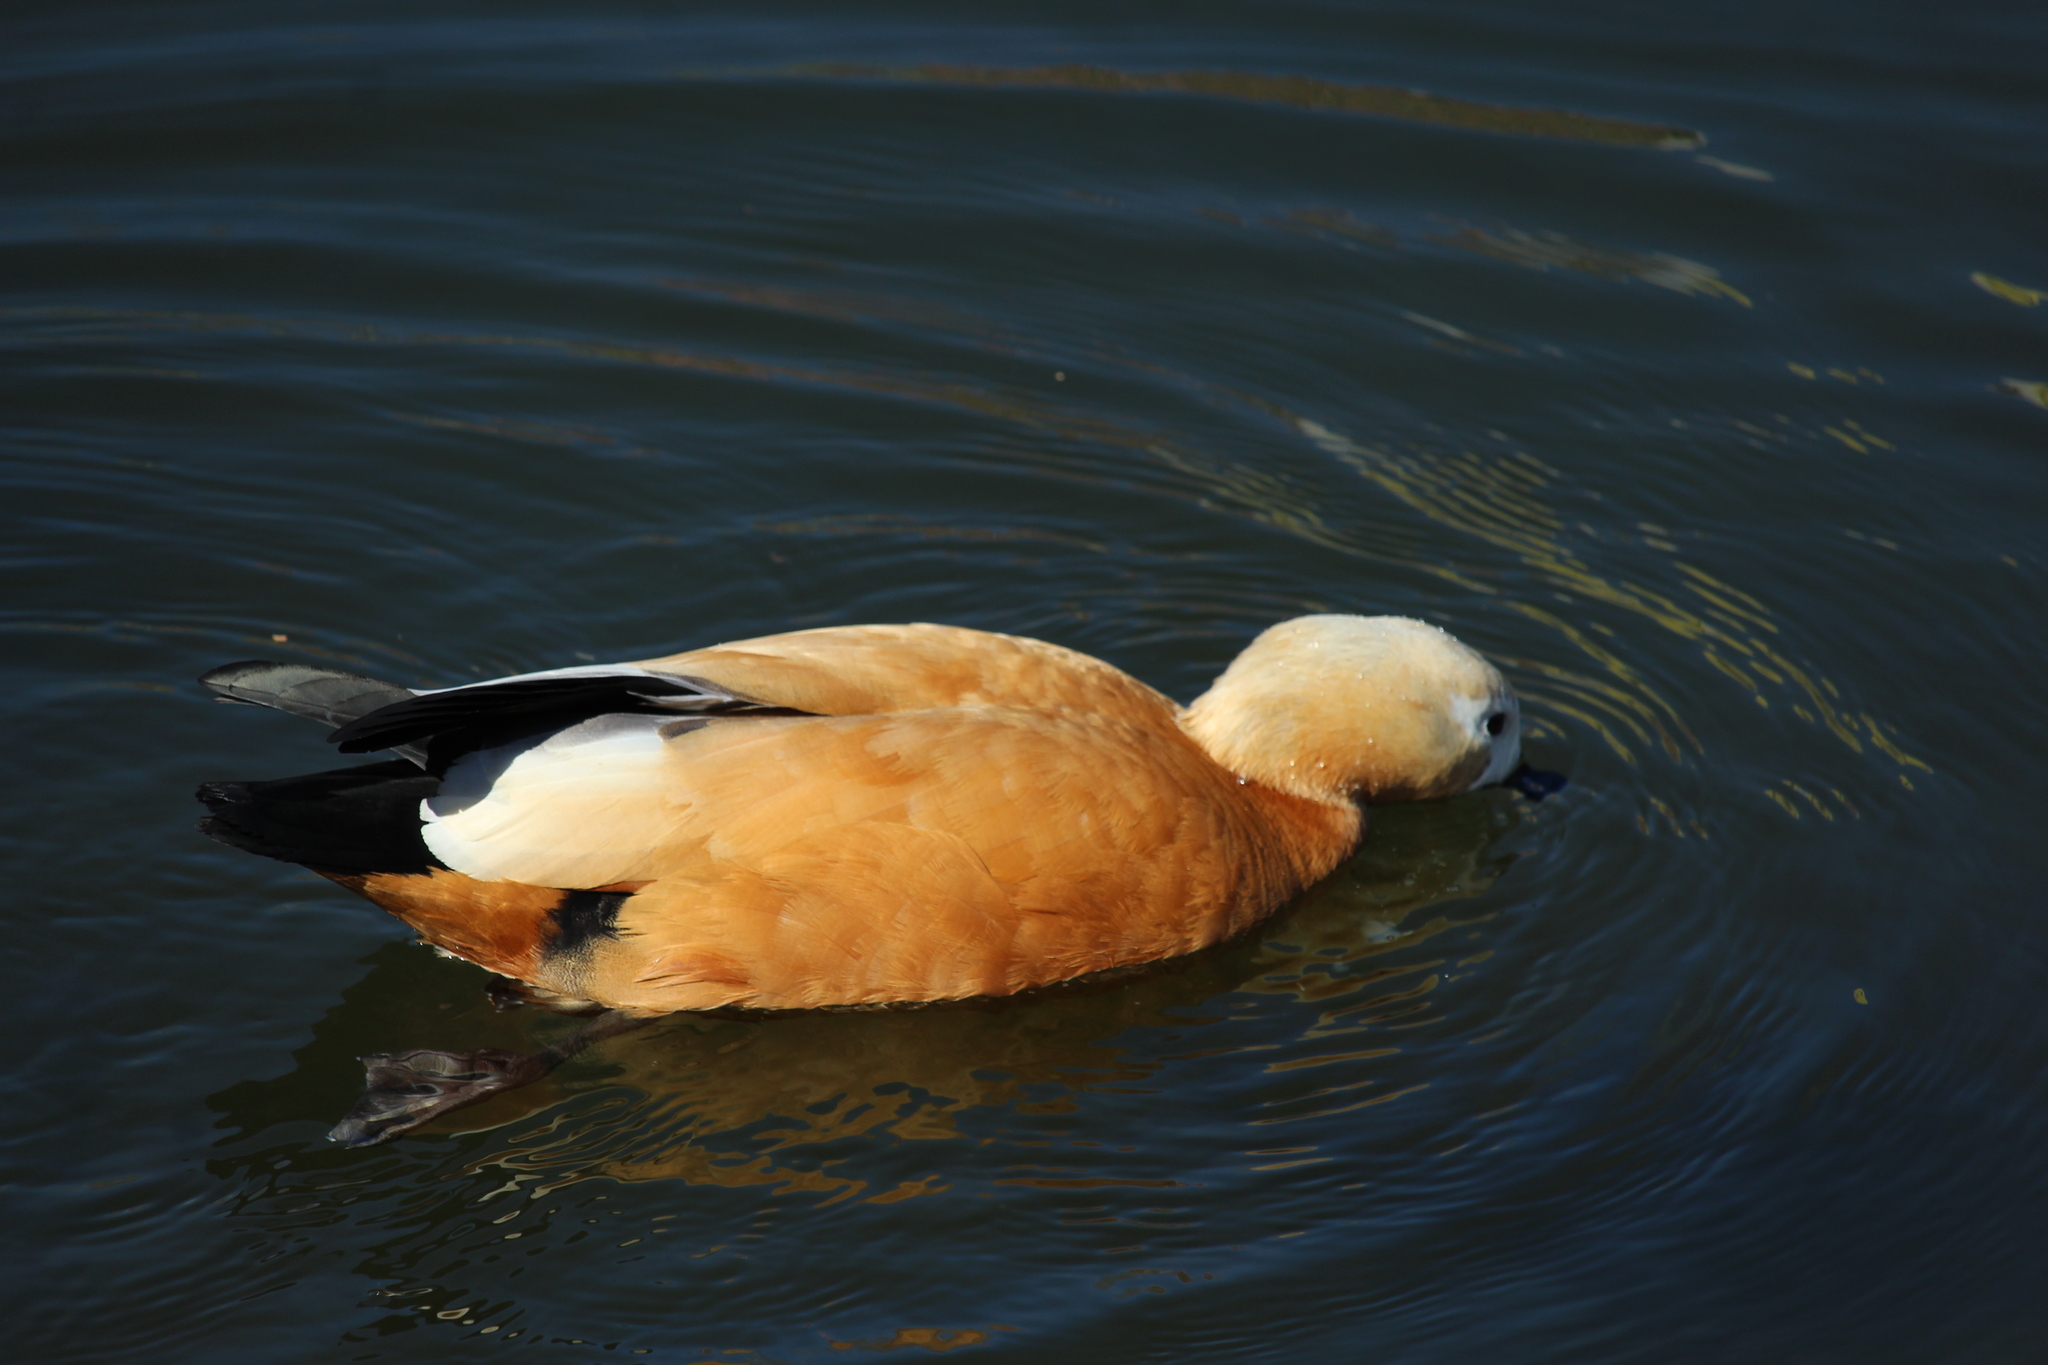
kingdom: Animalia
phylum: Chordata
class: Aves
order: Anseriformes
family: Anatidae
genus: Tadorna
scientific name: Tadorna ferruginea
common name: Ruddy shelduck
